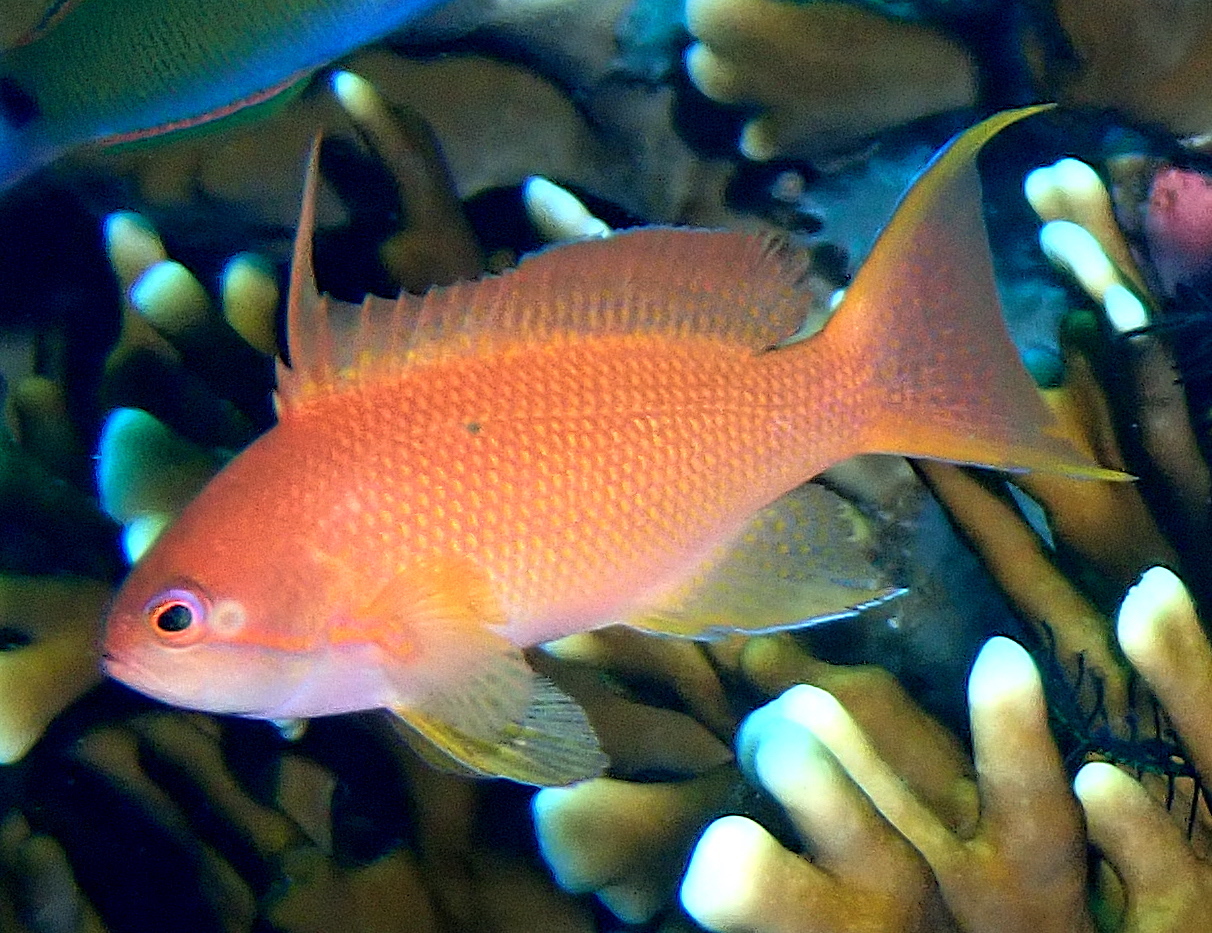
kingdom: Animalia
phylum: Chordata
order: Perciformes
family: Serranidae
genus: Pseudanthias
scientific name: Pseudanthias squamipinnis
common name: Scalefin anthias
